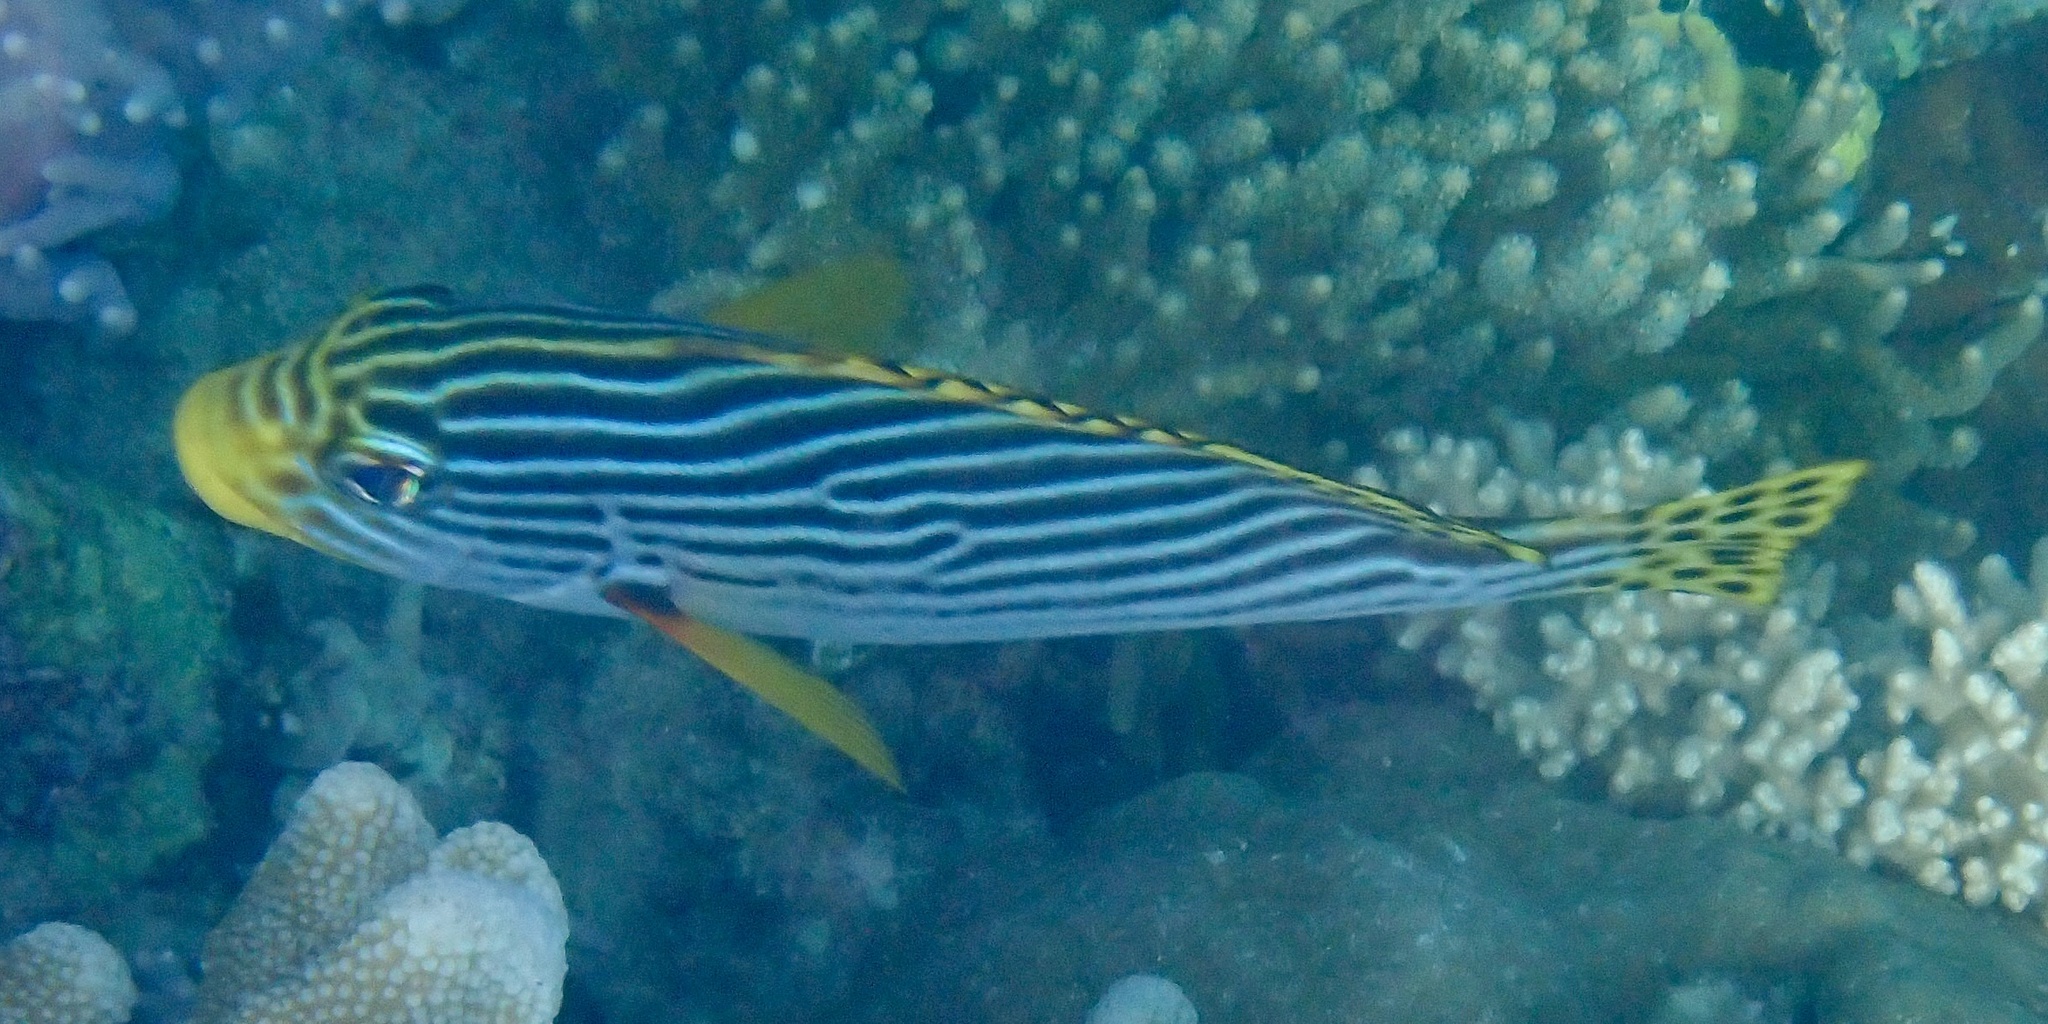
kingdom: Animalia
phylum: Chordata
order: Perciformes
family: Haemulidae
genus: Plectorhinchus
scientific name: Plectorhinchus lineatus
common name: Goldman's sweetlips
